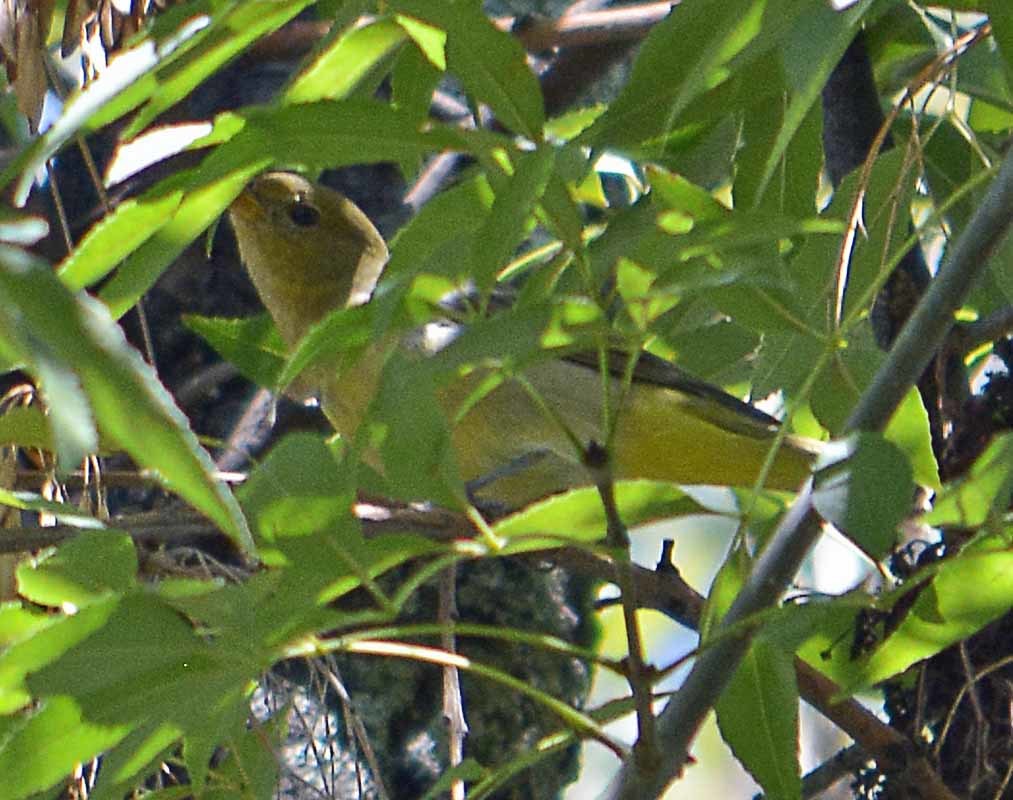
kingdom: Animalia
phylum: Chordata
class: Aves
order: Passeriformes
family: Cardinalidae
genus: Piranga
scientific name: Piranga rubra
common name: Summer tanager
